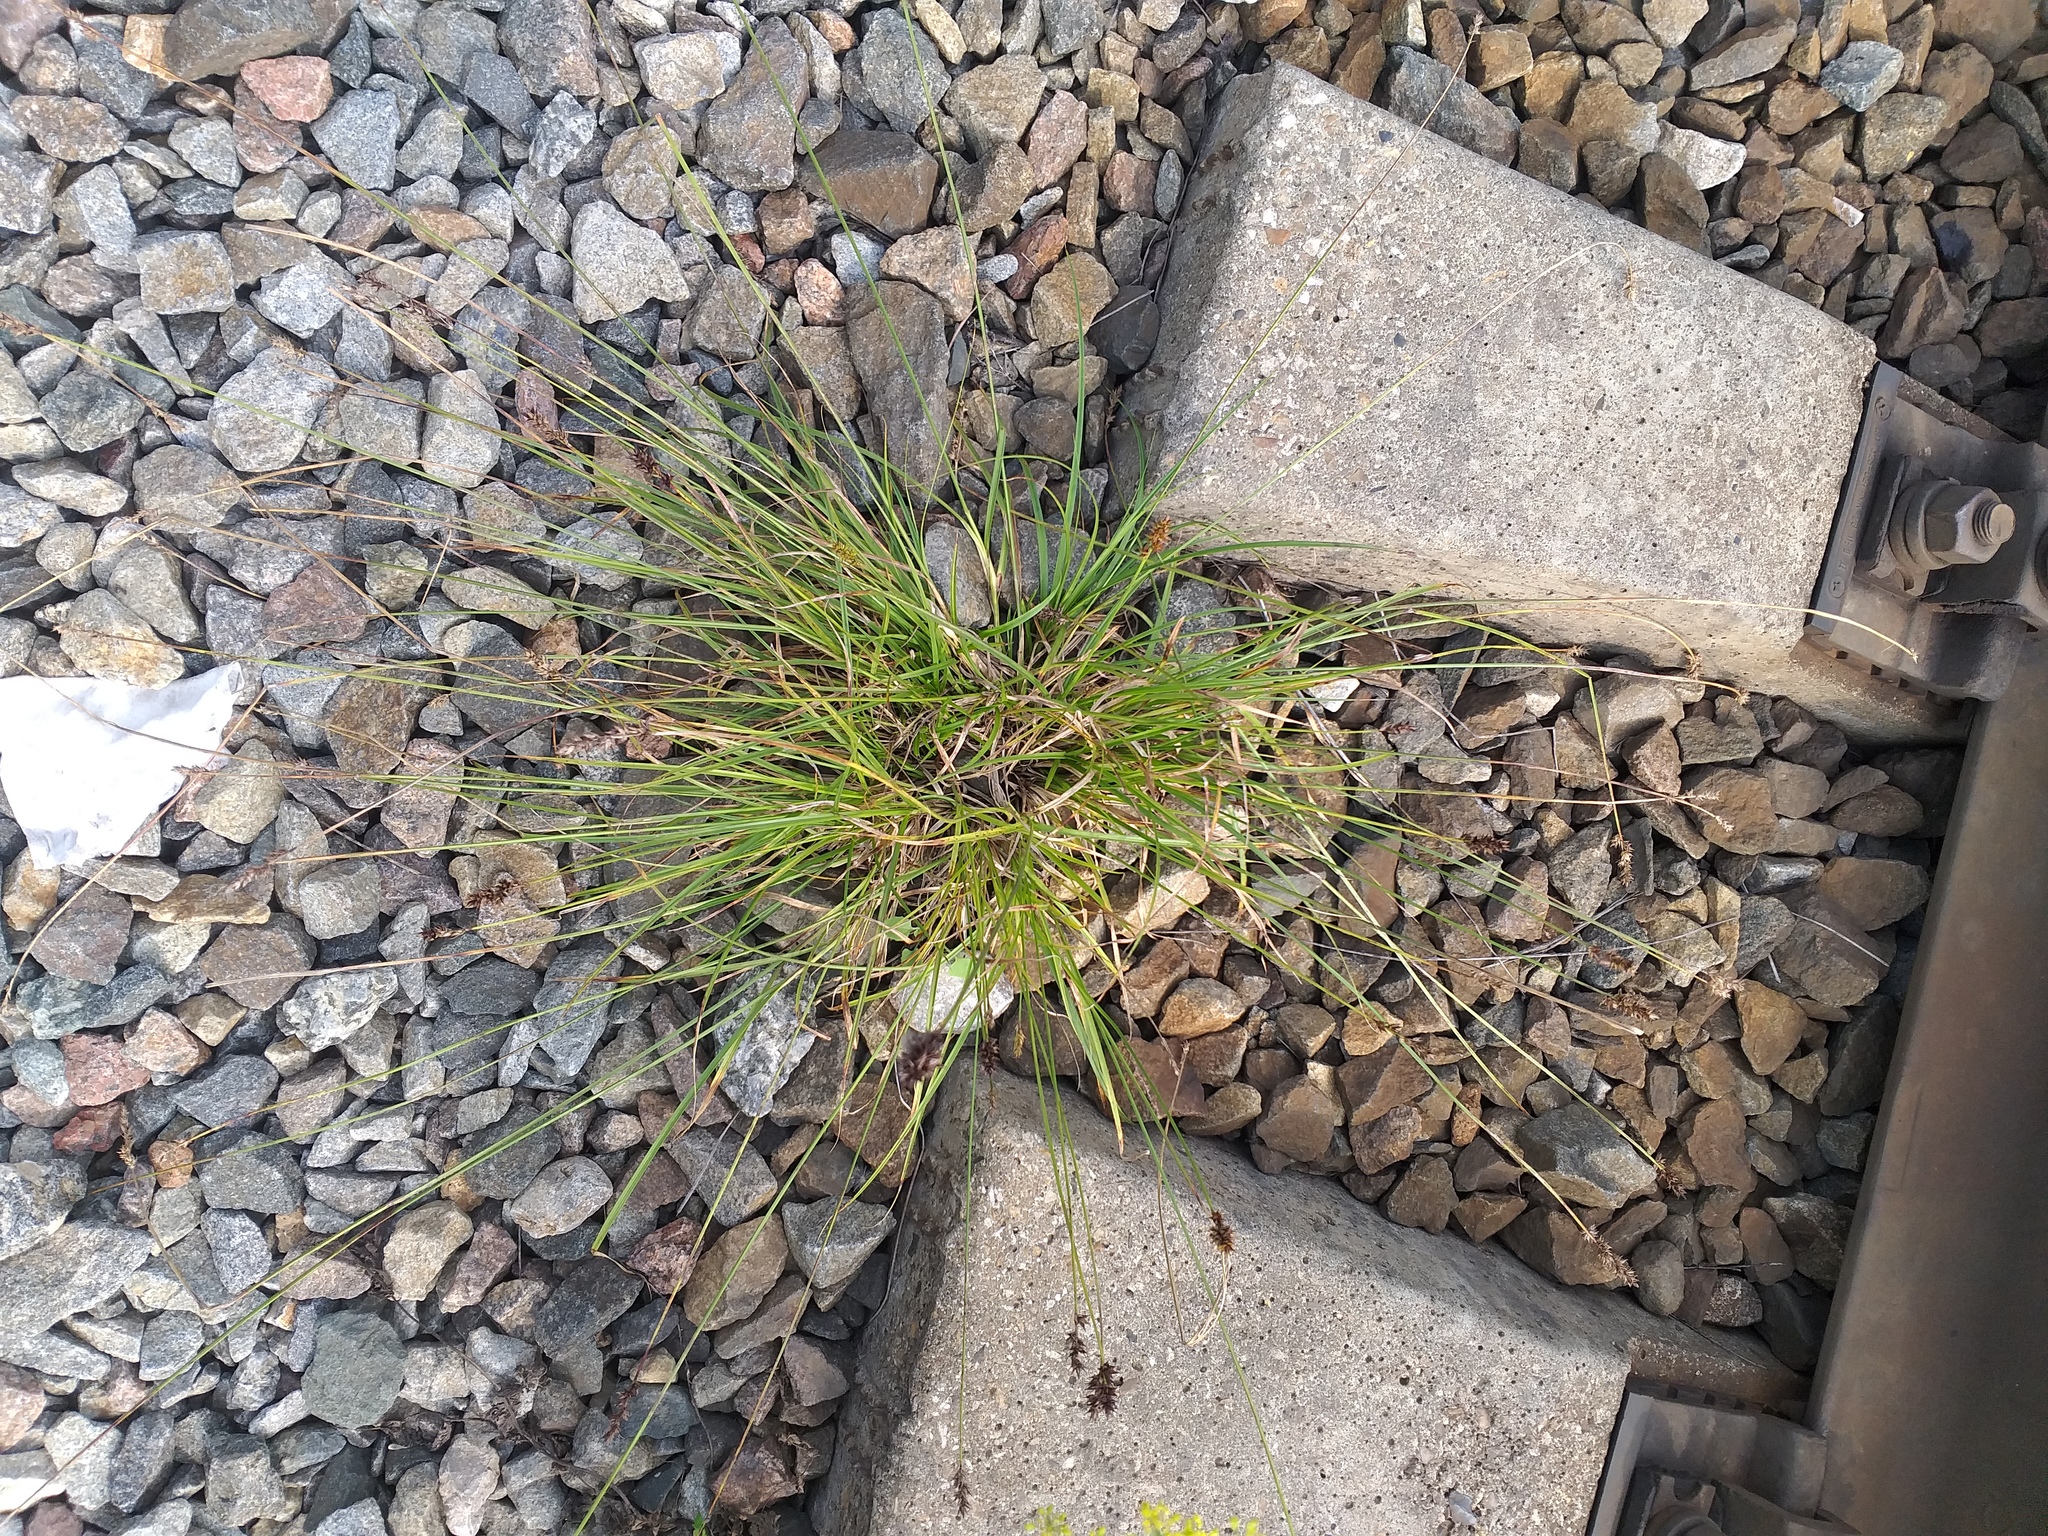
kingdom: Plantae
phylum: Tracheophyta
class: Liliopsida
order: Poales
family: Cyperaceae
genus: Carex
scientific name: Carex spicata
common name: Spiked sedge
